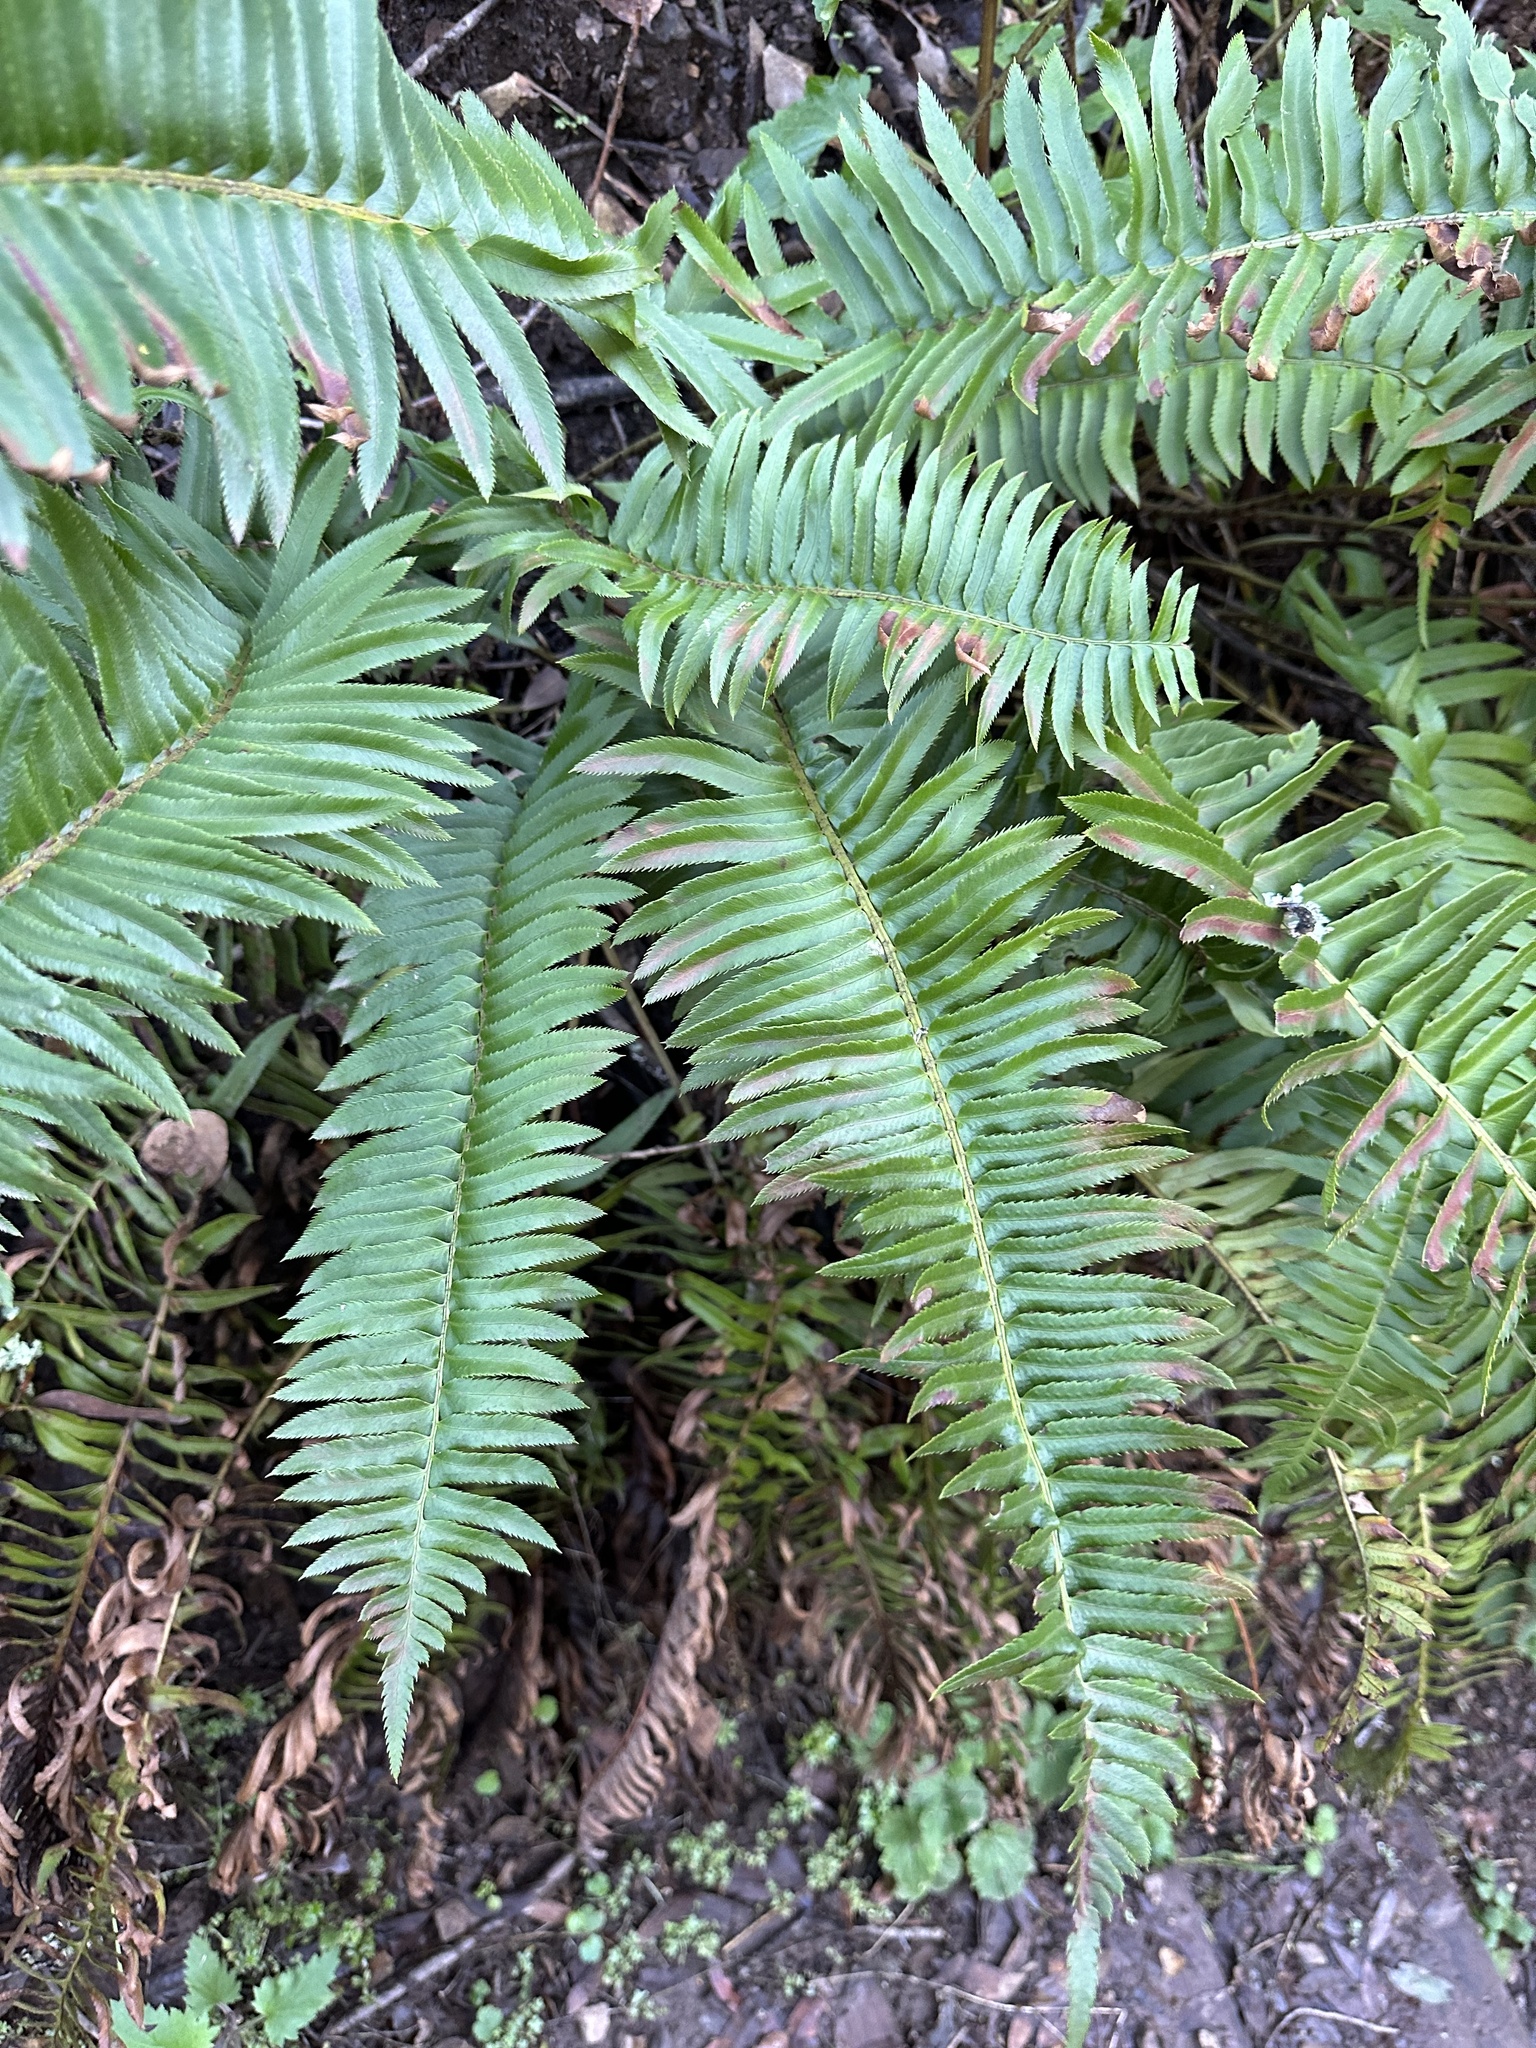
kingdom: Plantae
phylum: Tracheophyta
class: Polypodiopsida
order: Polypodiales
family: Dryopteridaceae
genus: Polystichum
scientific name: Polystichum munitum
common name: Western sword-fern
